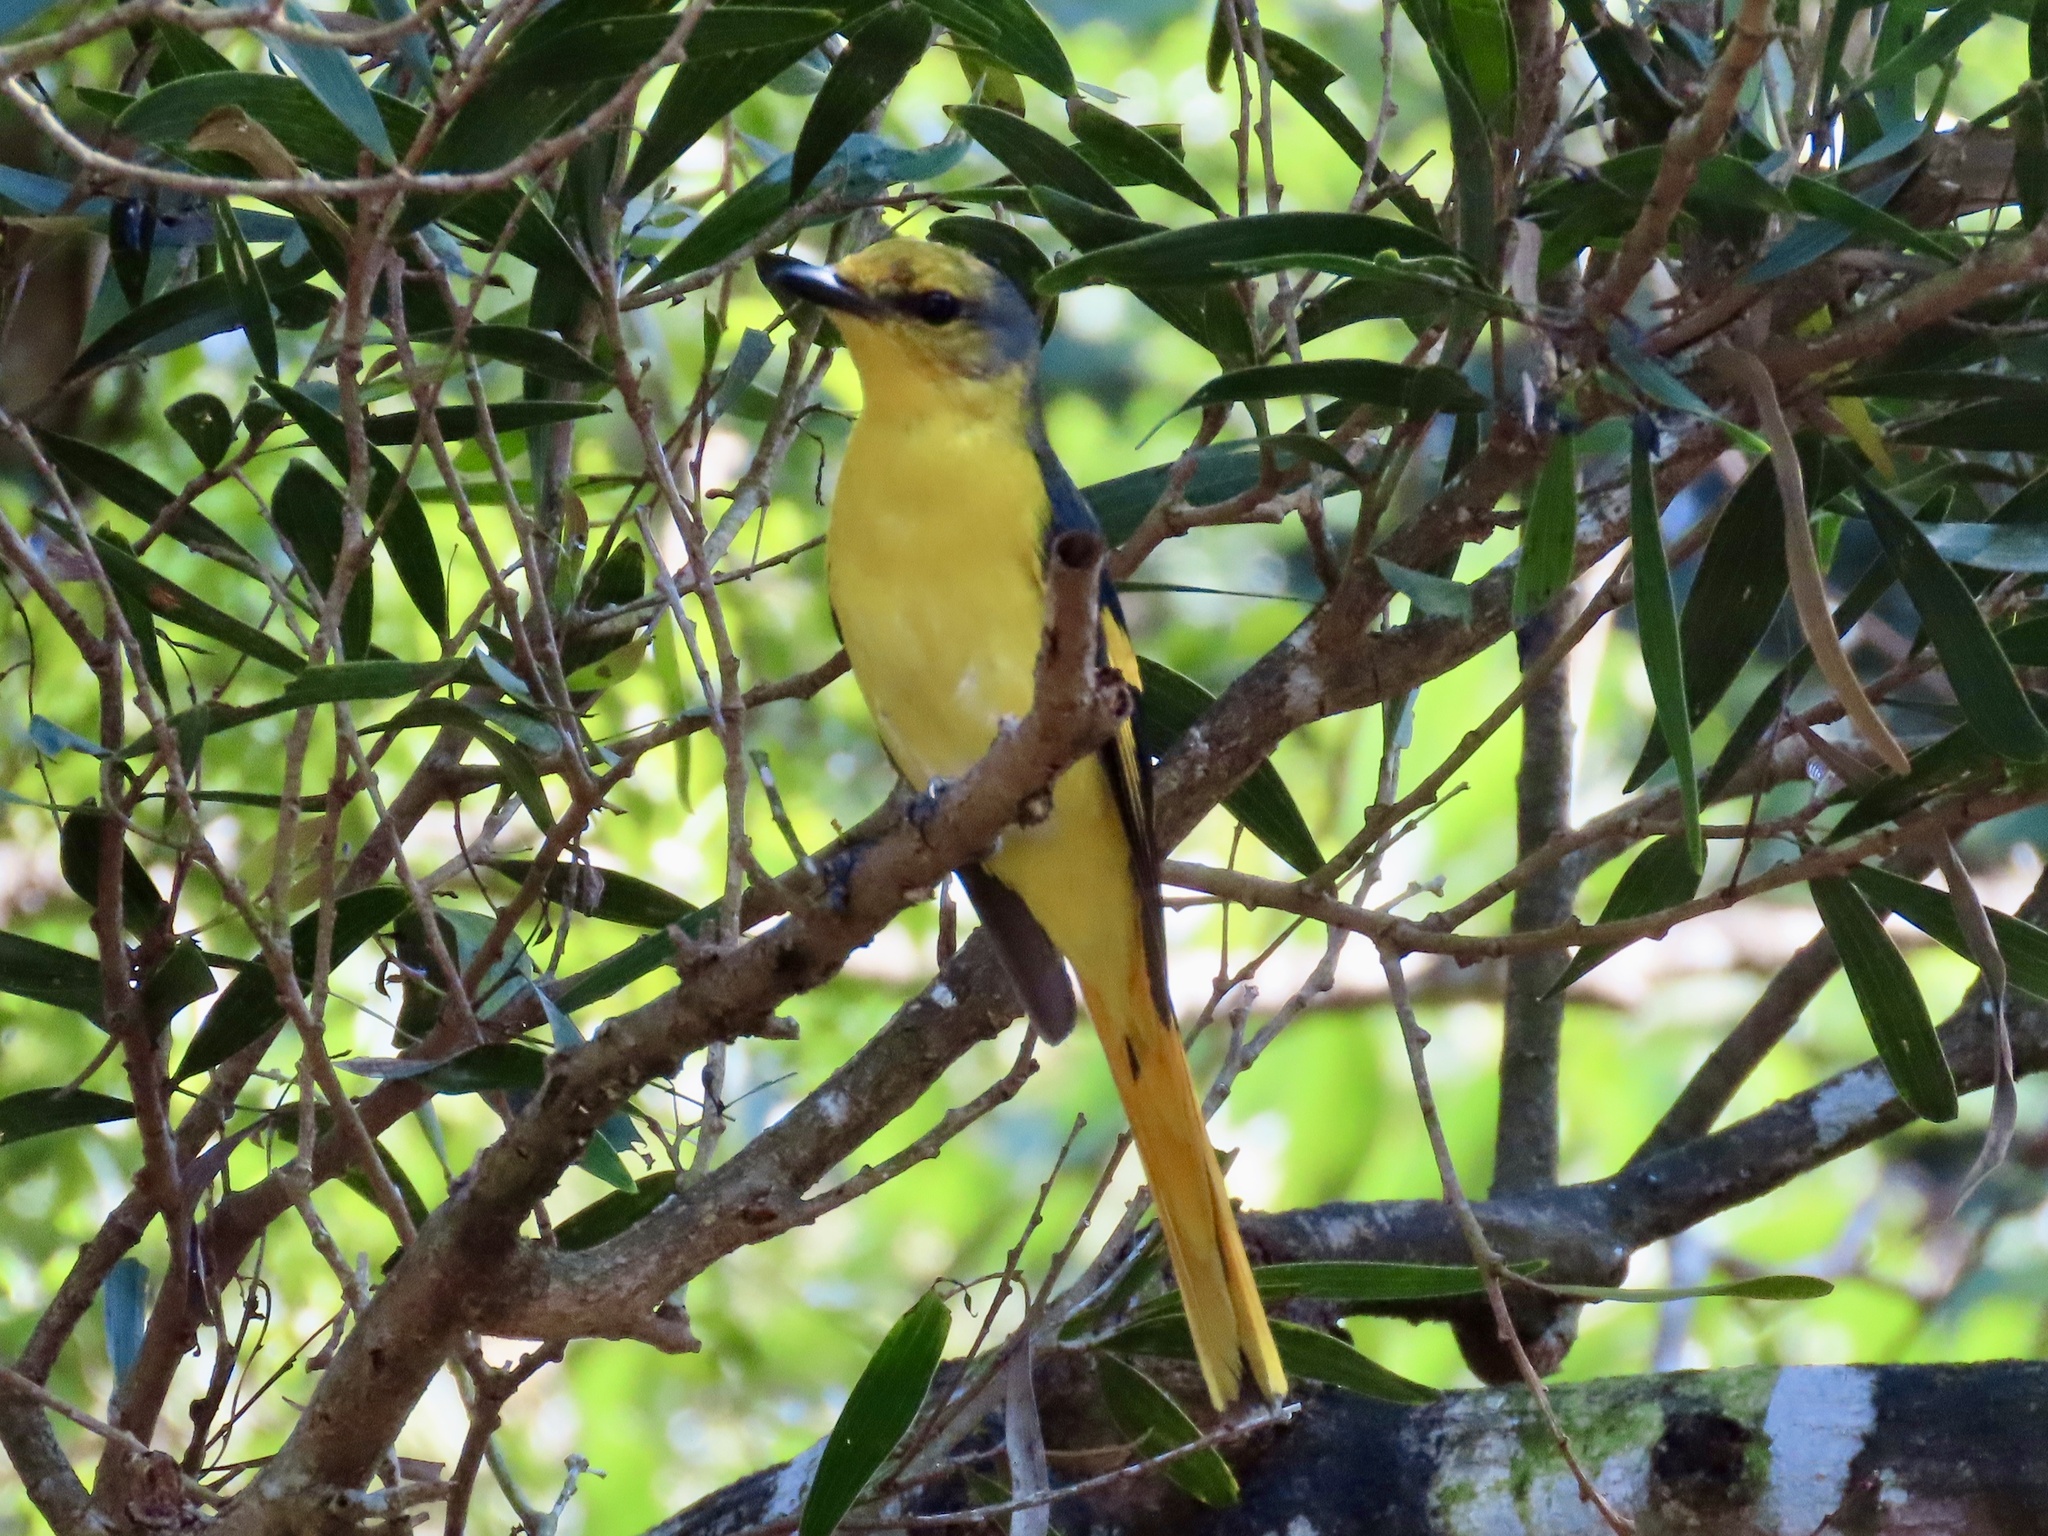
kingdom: Animalia
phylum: Chordata
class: Aves
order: Passeriformes
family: Campephagidae
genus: Pericrocotus
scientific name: Pericrocotus speciosus
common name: Scarlet minivet
